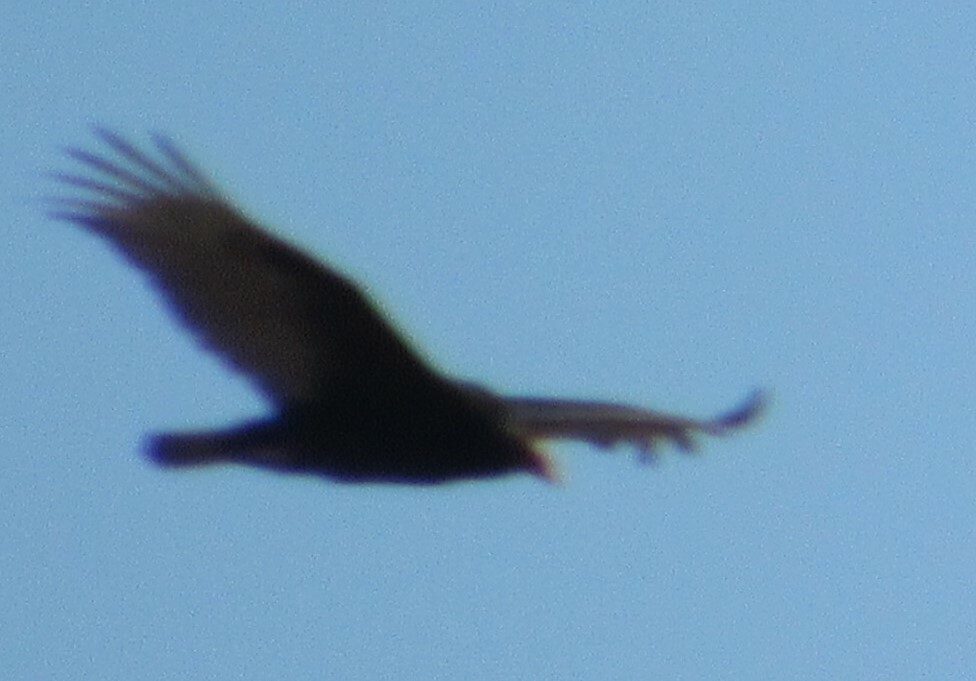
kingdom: Animalia
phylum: Chordata
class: Aves
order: Accipitriformes
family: Cathartidae
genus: Cathartes
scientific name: Cathartes aura
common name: Turkey vulture
